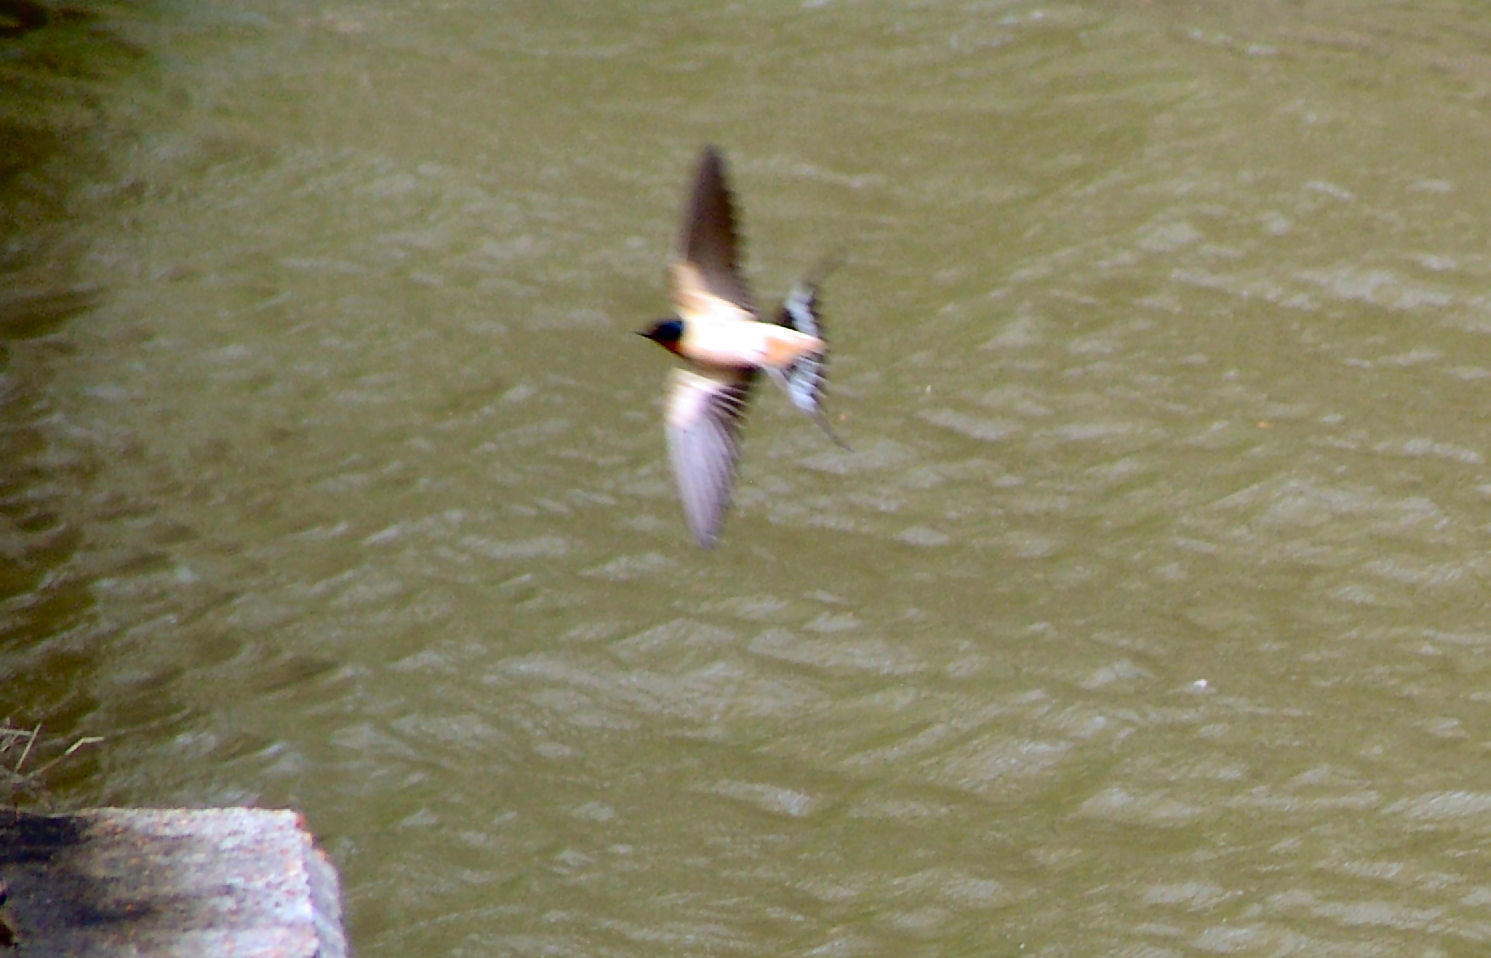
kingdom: Animalia
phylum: Chordata
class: Aves
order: Passeriformes
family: Hirundinidae
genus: Hirundo
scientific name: Hirundo rustica
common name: Barn swallow
